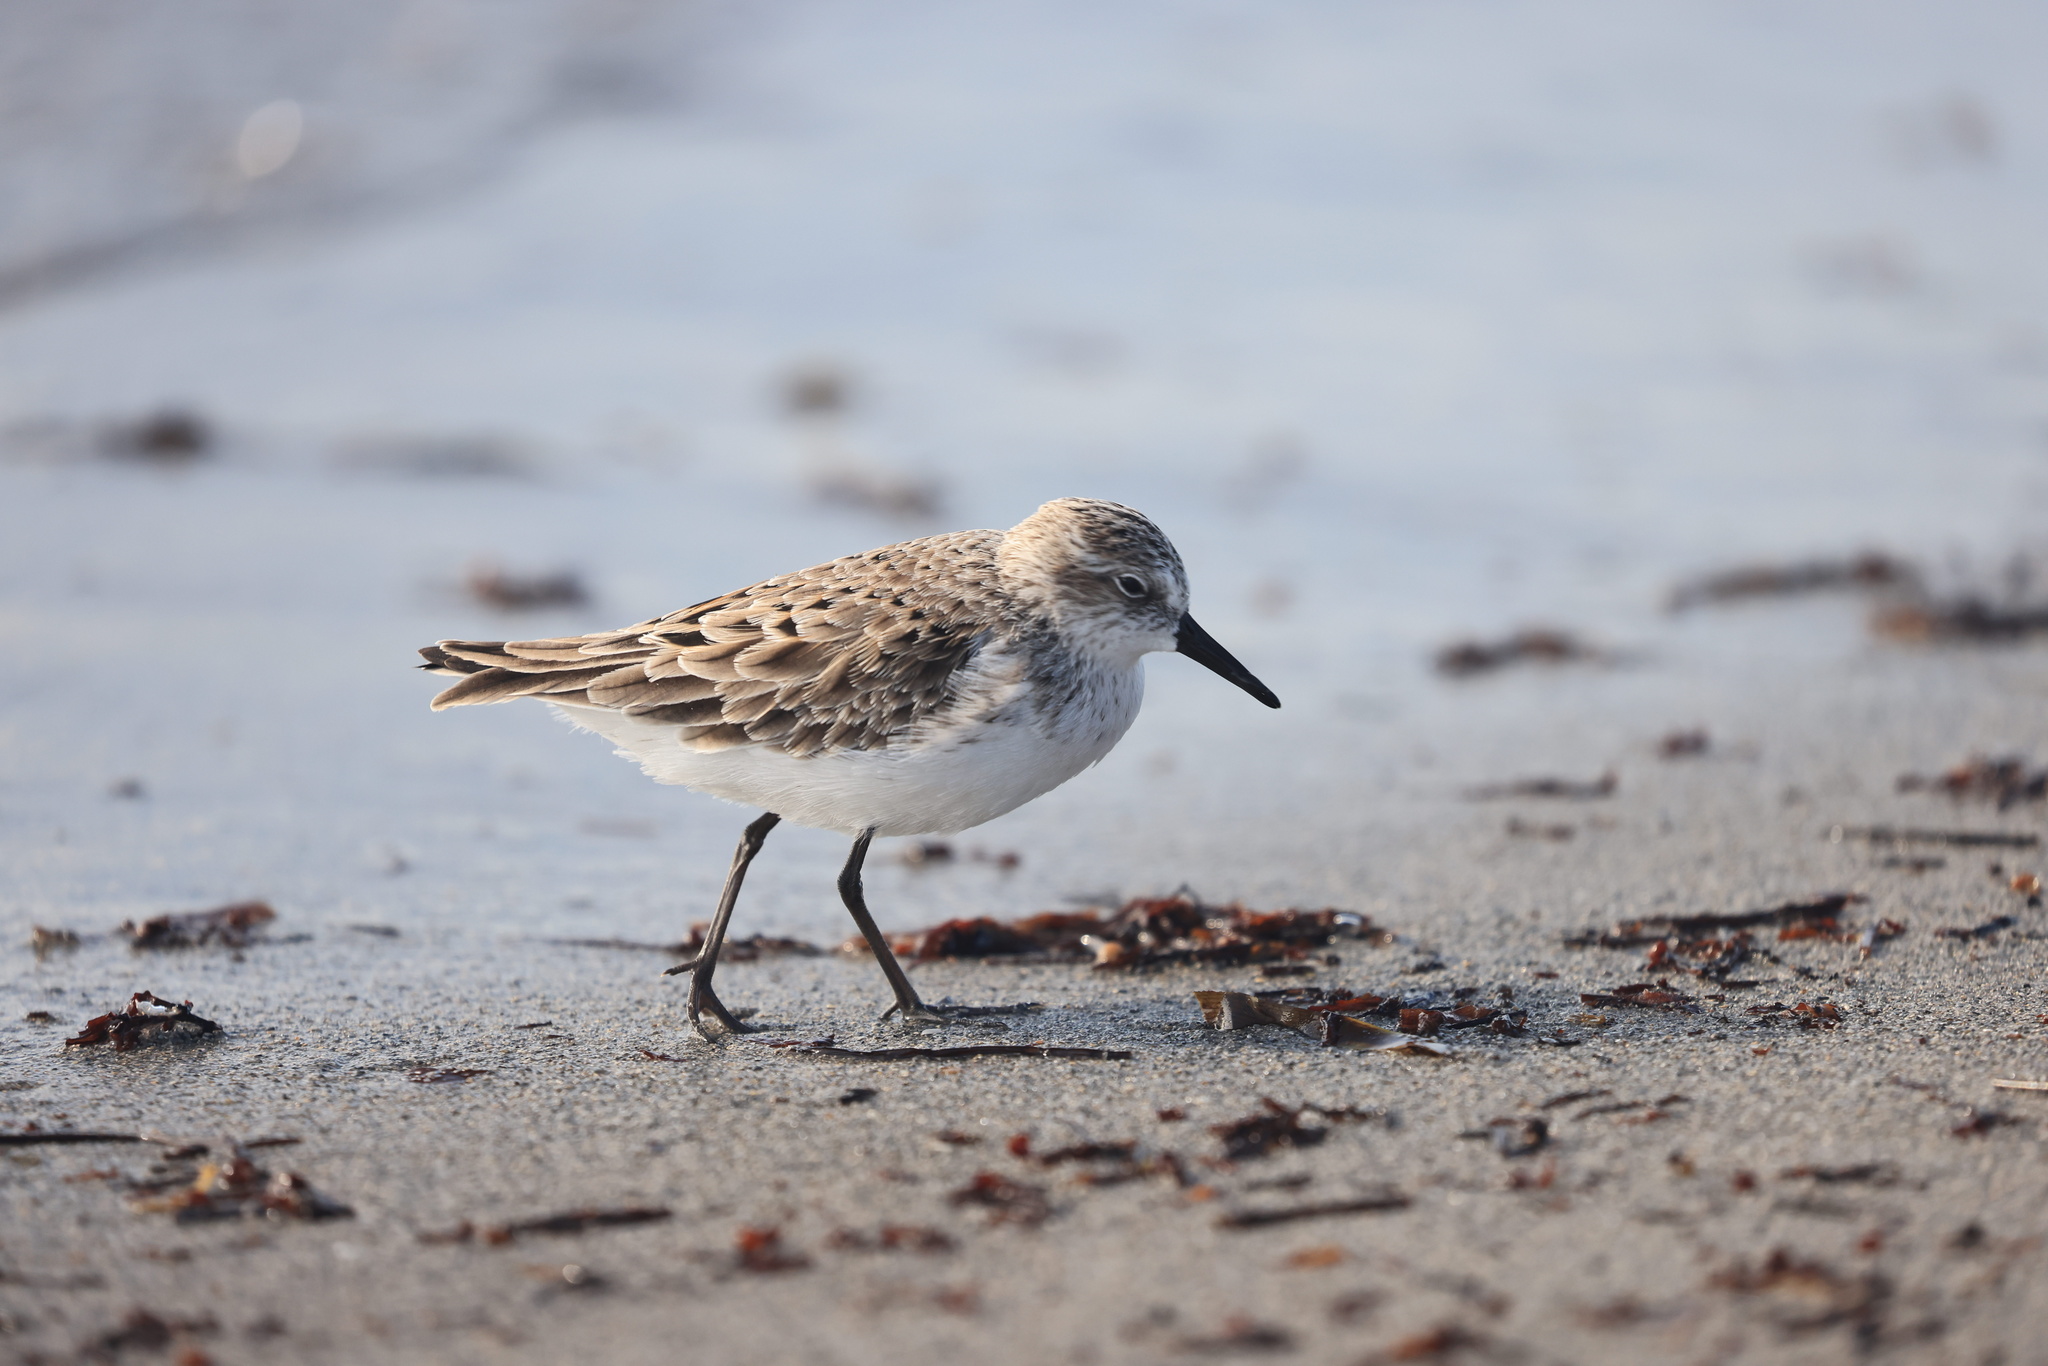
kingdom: Animalia
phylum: Chordata
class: Aves
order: Charadriiformes
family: Scolopacidae
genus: Calidris
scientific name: Calidris pusilla
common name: Semipalmated sandpiper
